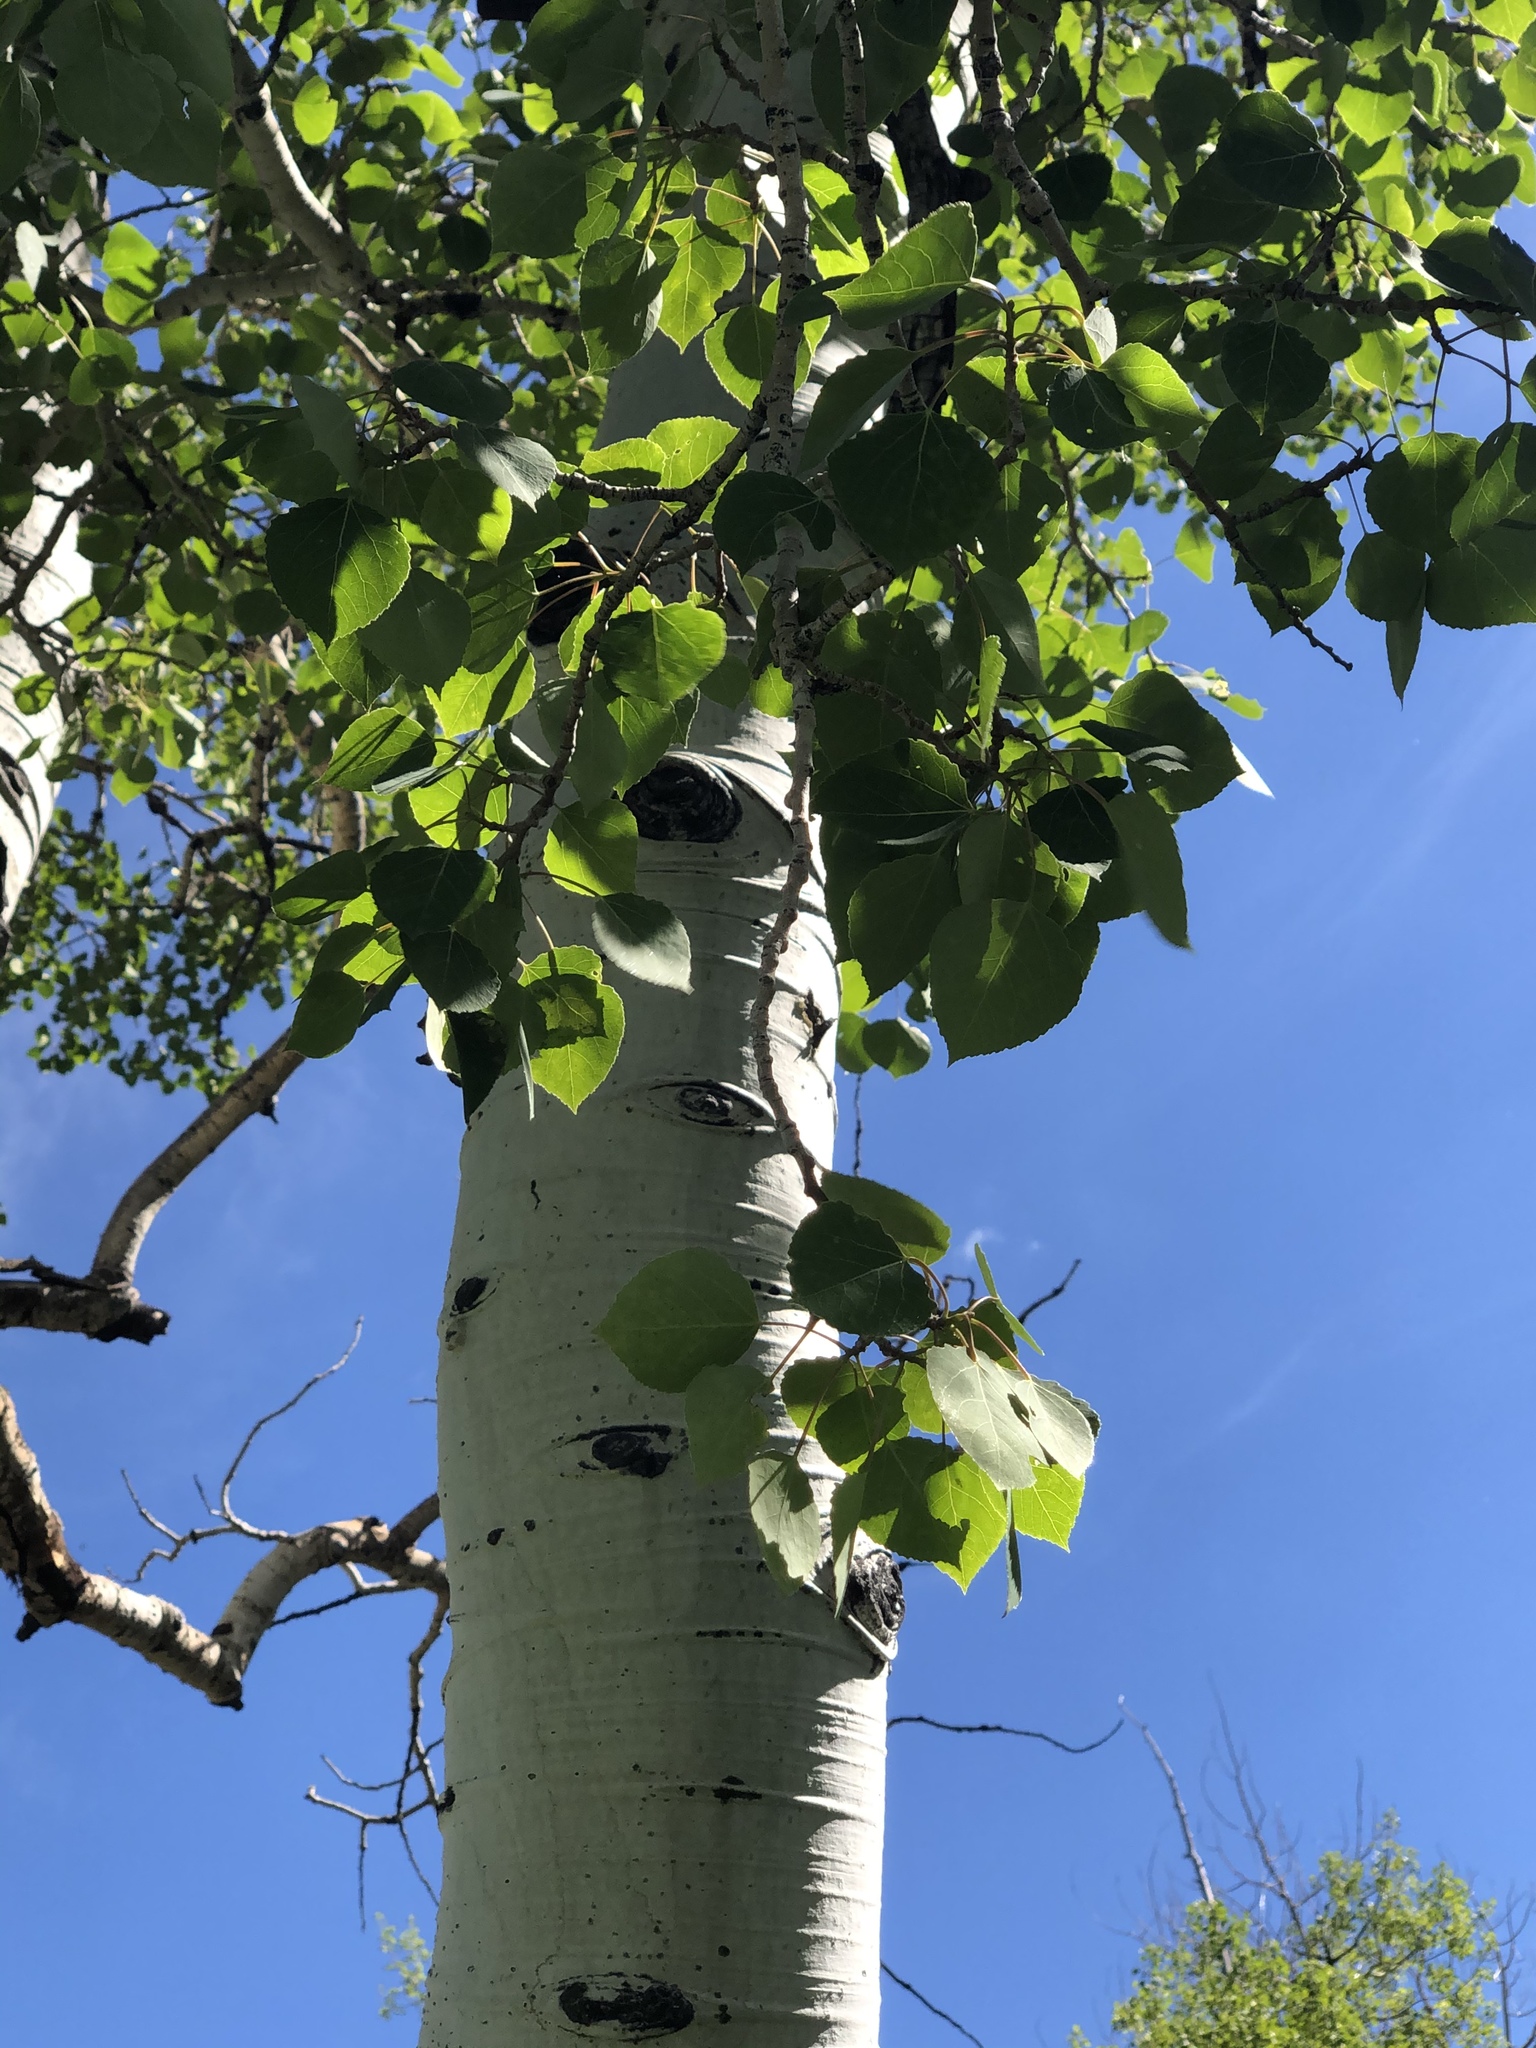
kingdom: Plantae
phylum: Tracheophyta
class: Magnoliopsida
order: Malpighiales
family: Salicaceae
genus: Populus
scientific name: Populus tremuloides
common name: Quaking aspen
